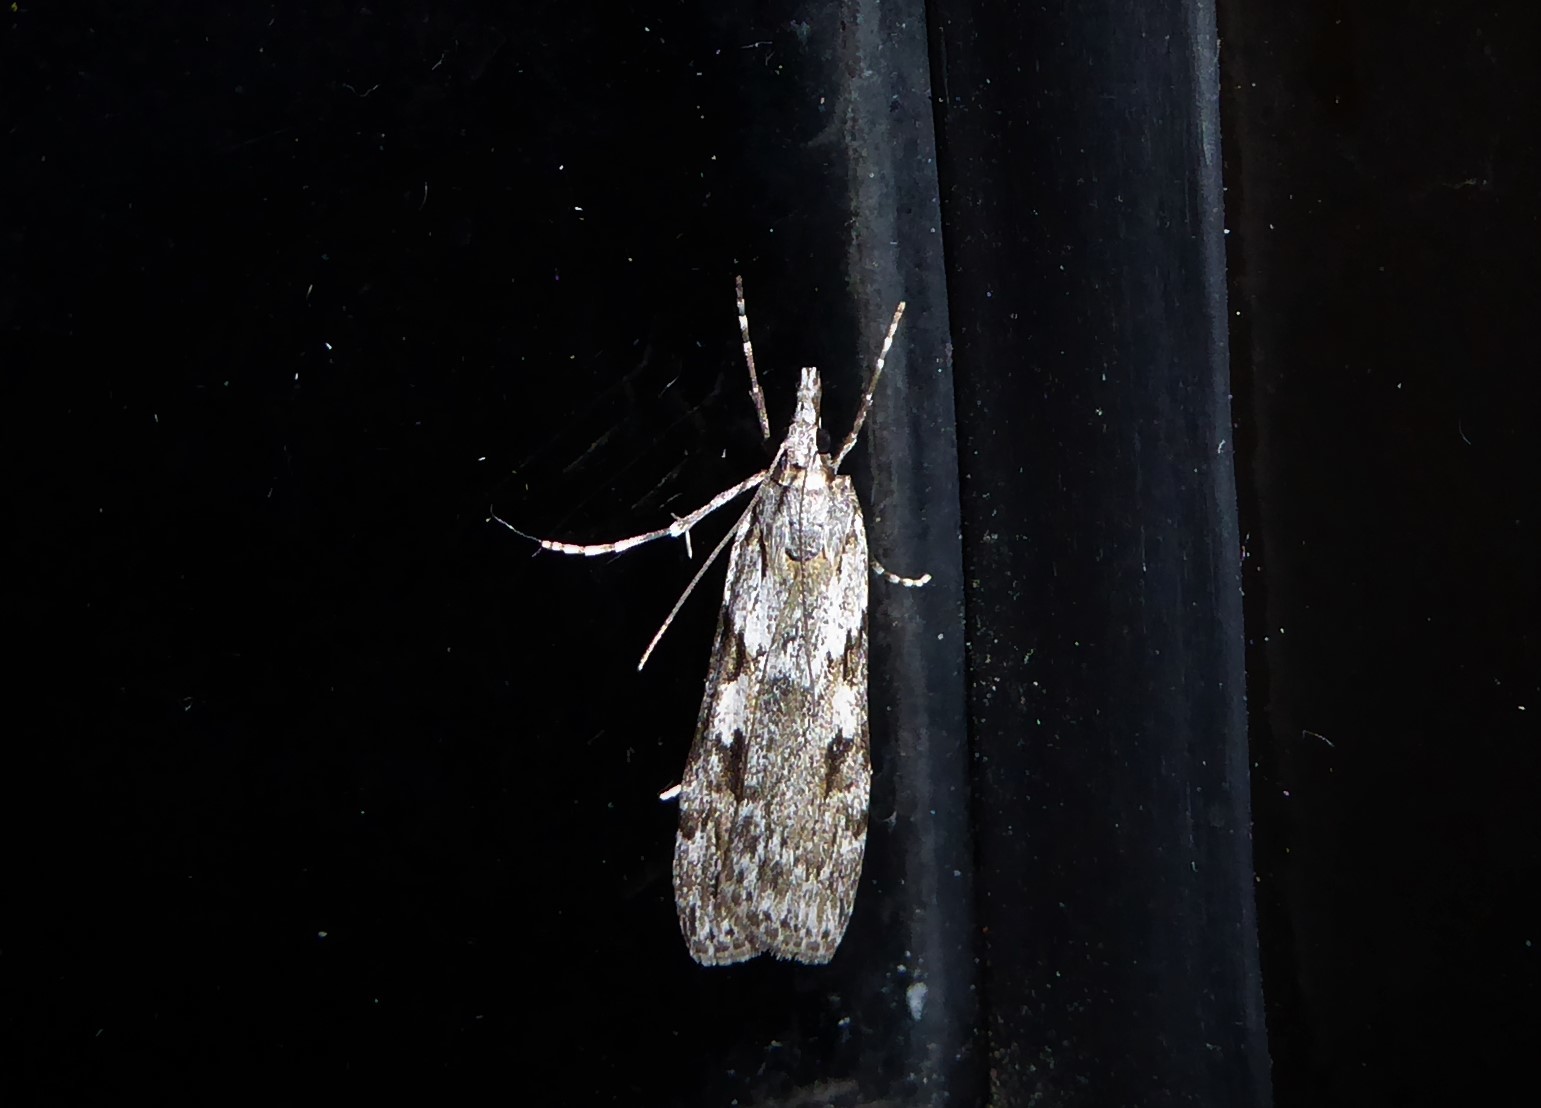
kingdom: Animalia
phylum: Arthropoda
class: Insecta
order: Lepidoptera
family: Crambidae
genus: Scoparia
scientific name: Scoparia halopis
